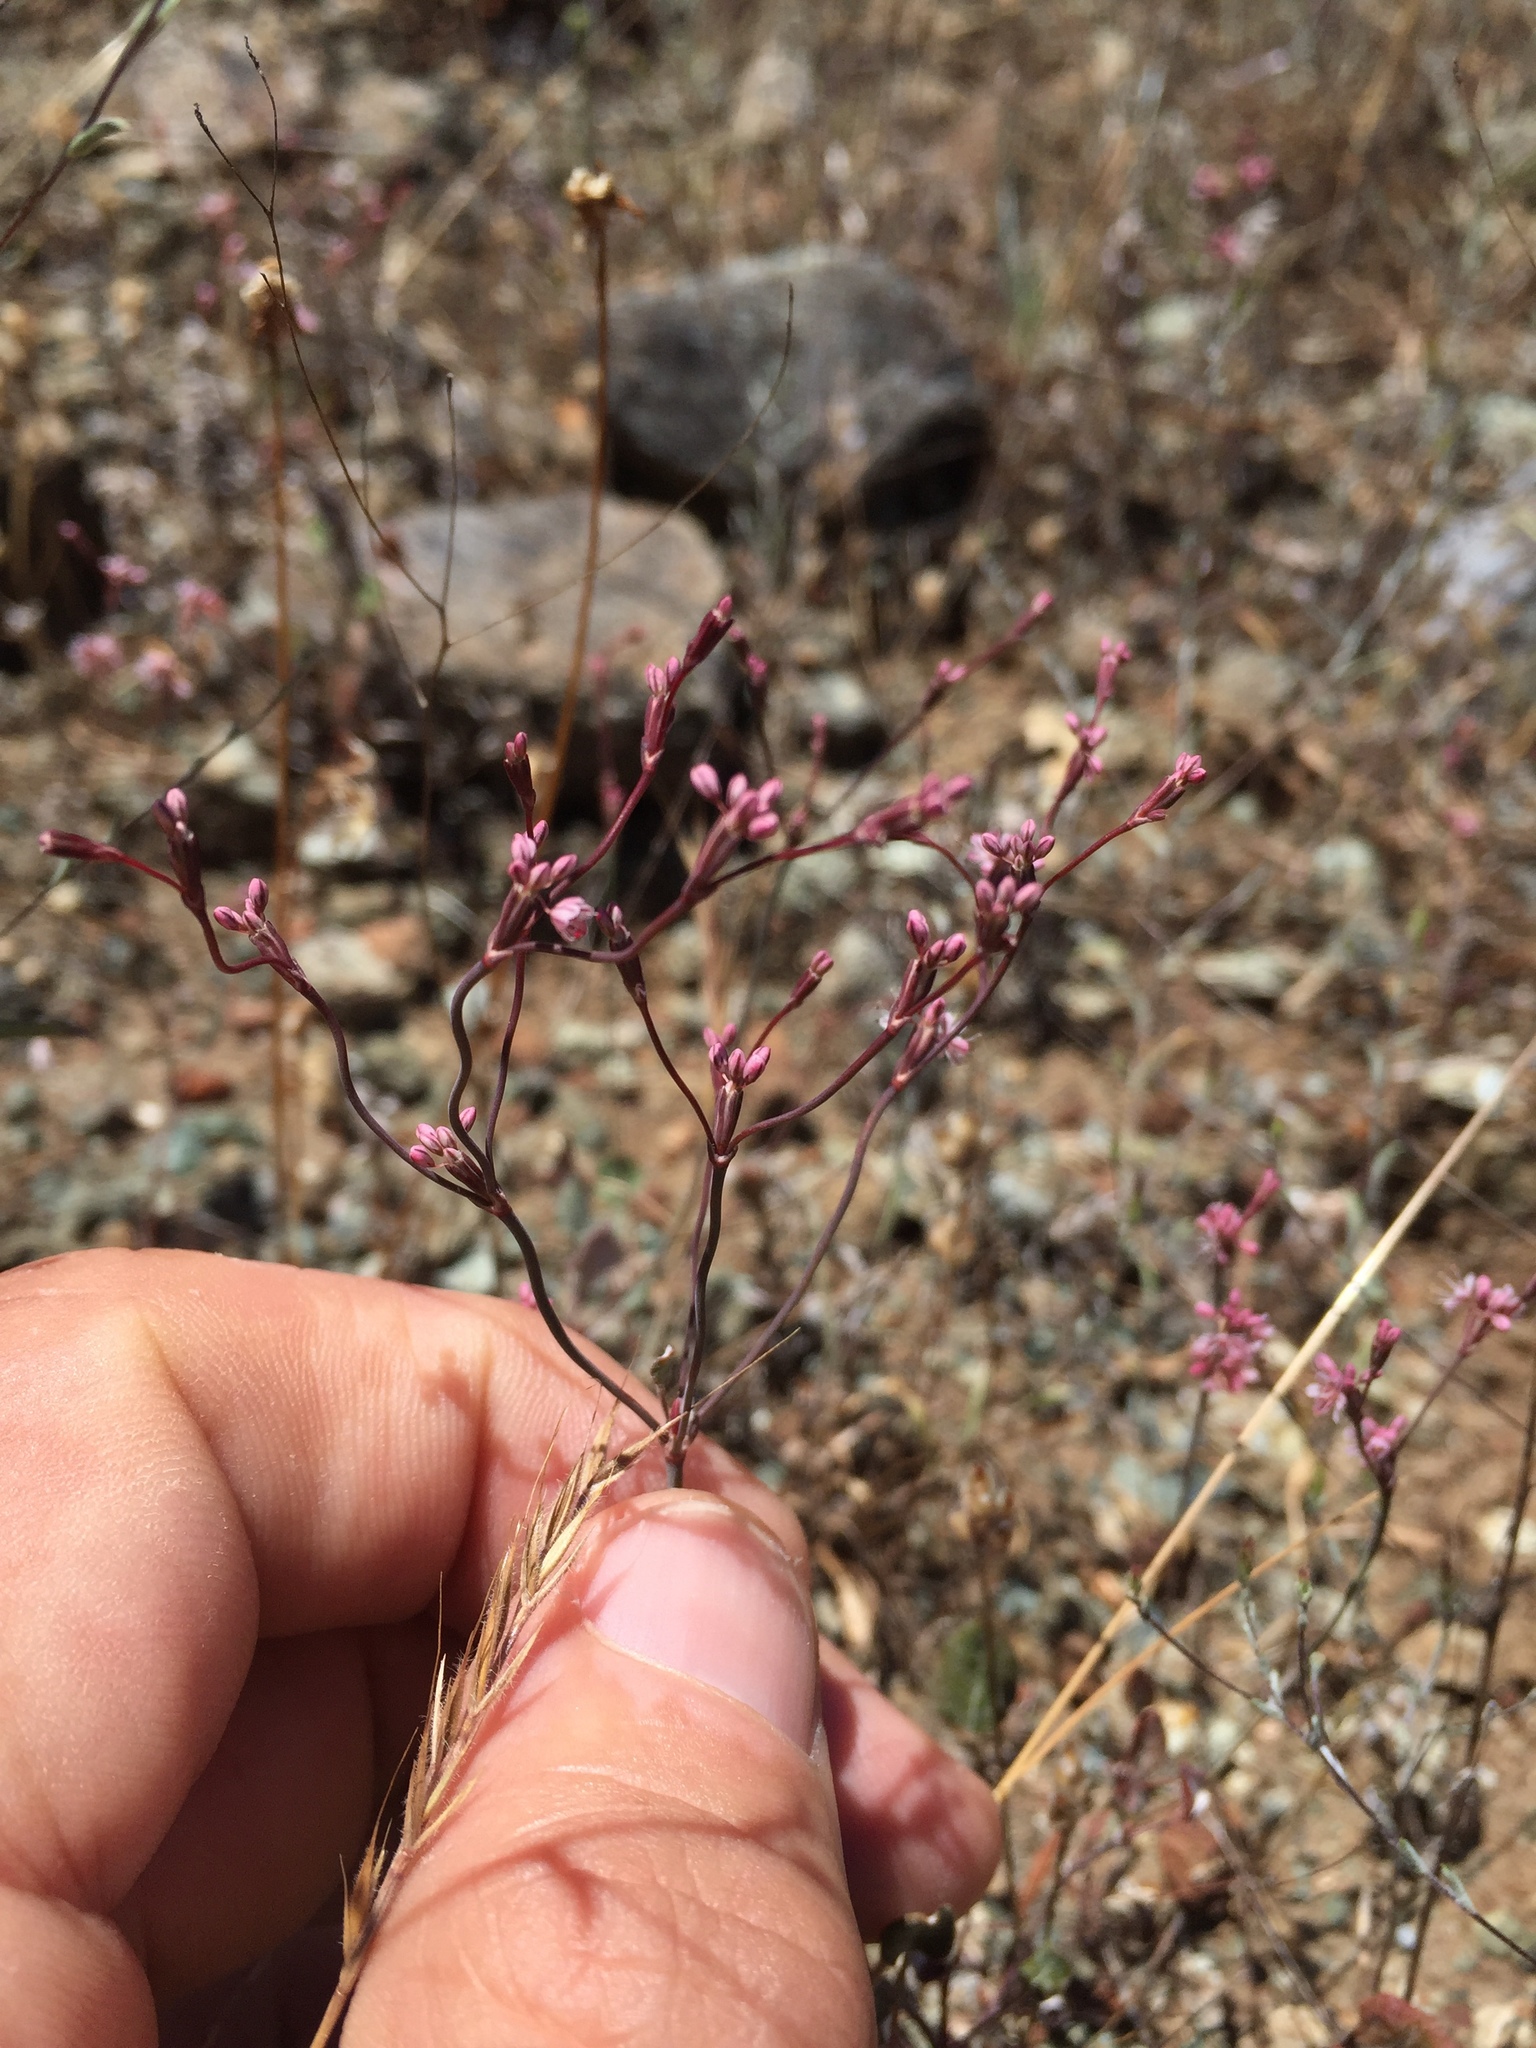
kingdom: Plantae
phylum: Tracheophyta
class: Magnoliopsida
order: Caryophyllales
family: Polygonaceae
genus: Eriogonum
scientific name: Eriogonum luteolum
